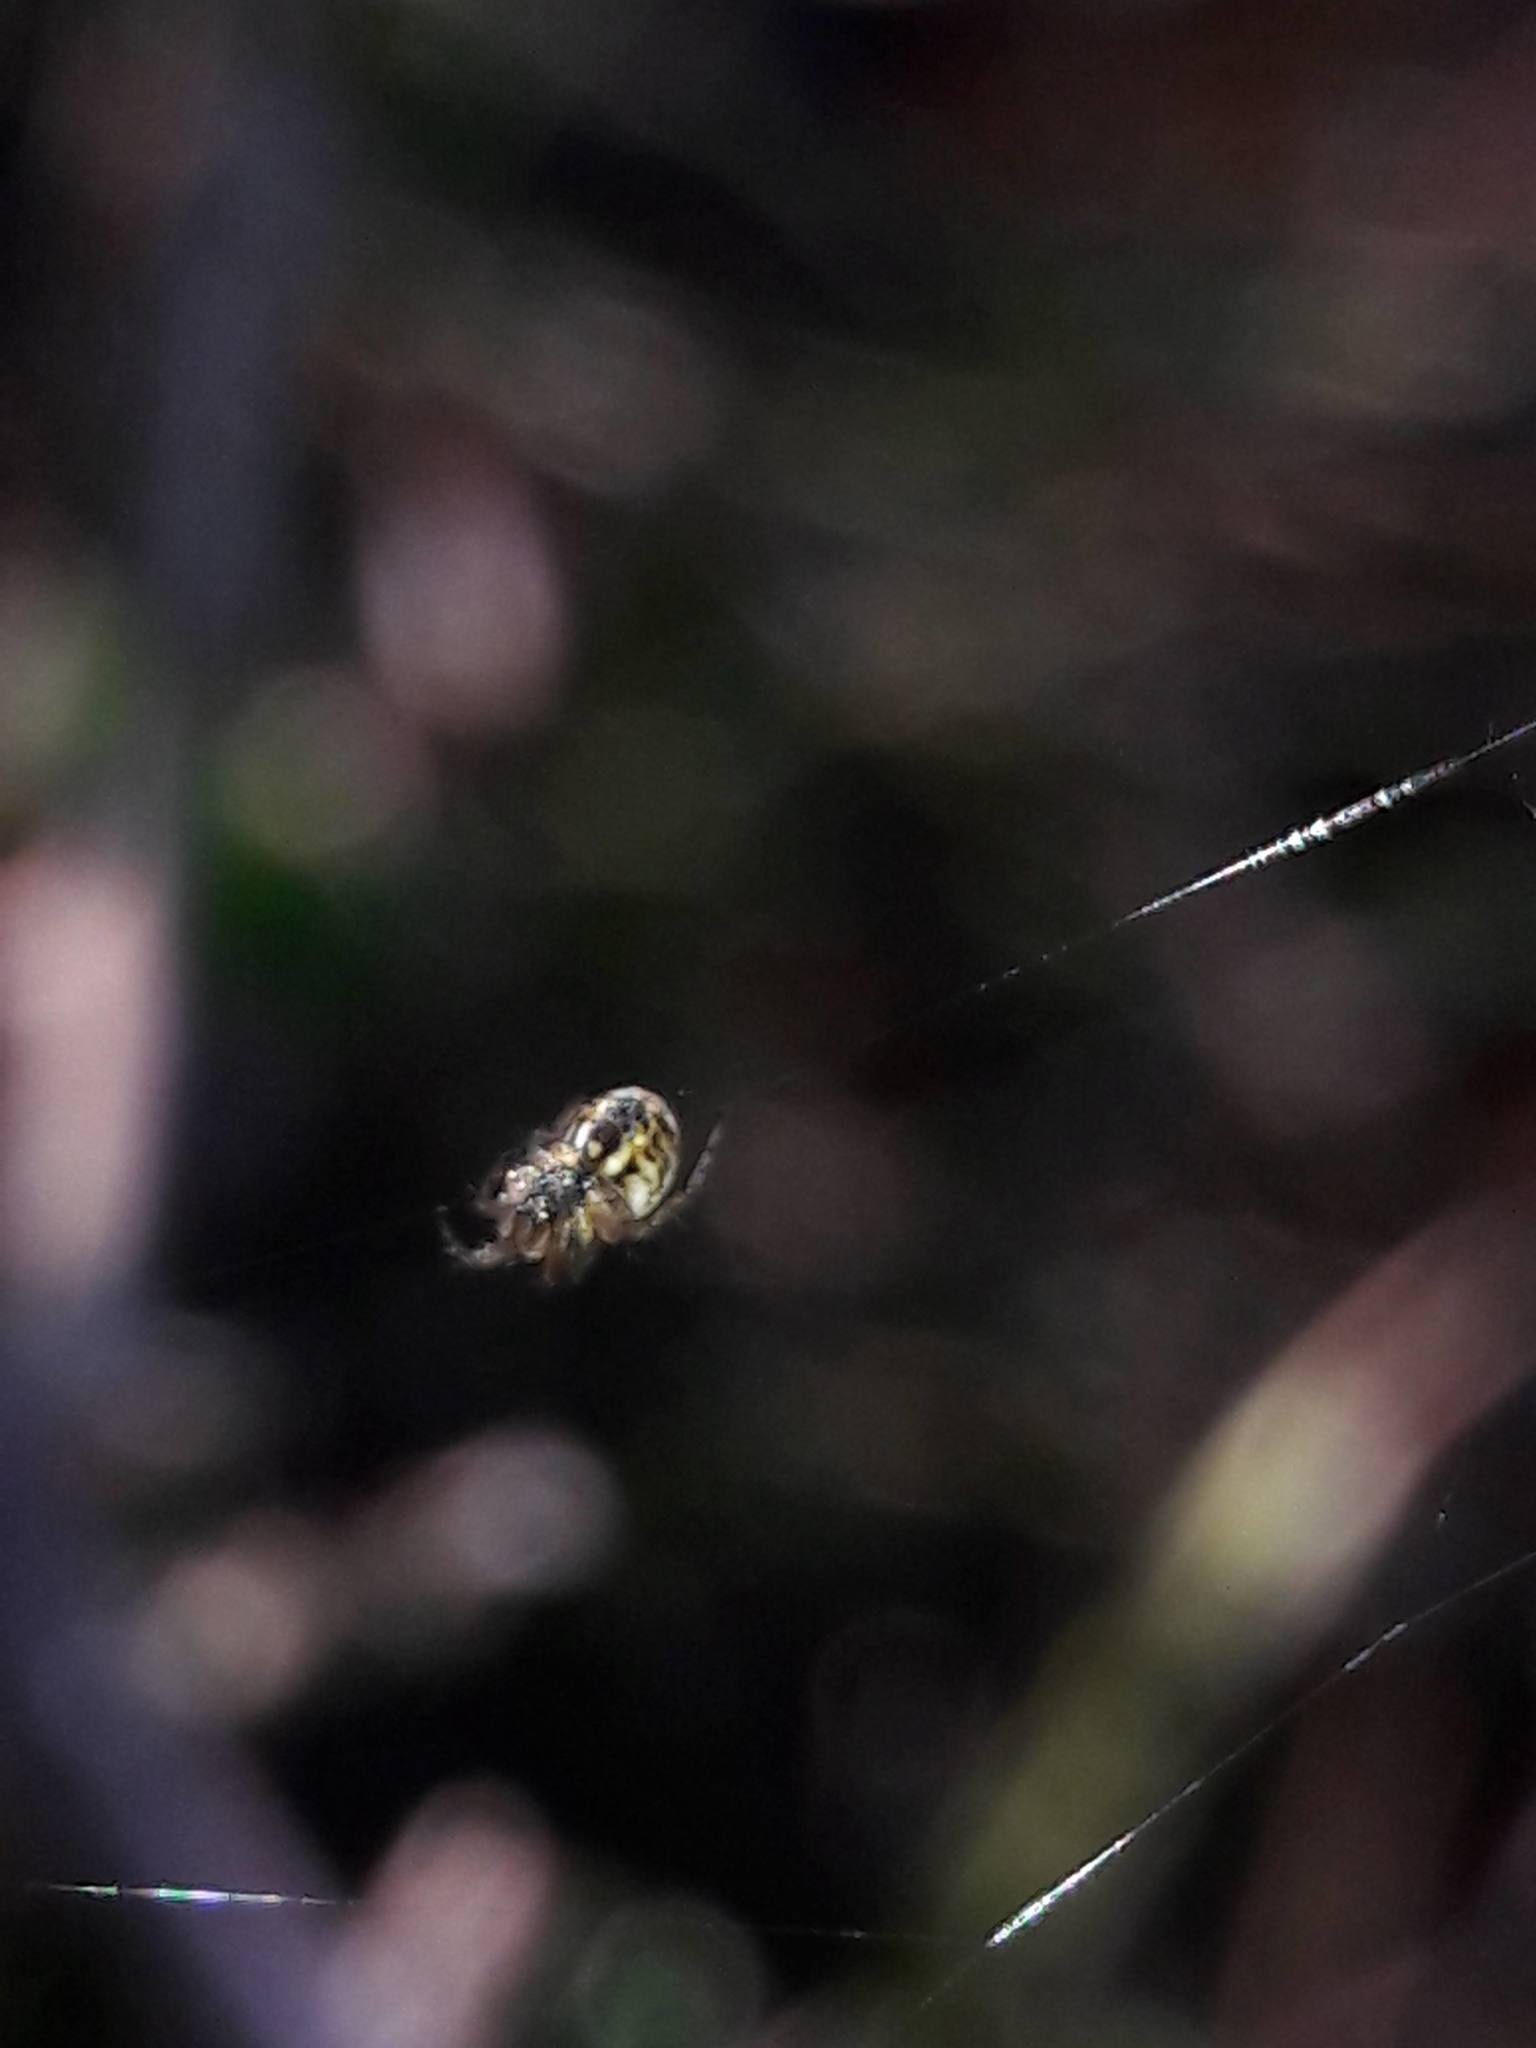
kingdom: Animalia
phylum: Arthropoda
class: Arachnida
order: Araneae
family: Araneidae
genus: Mangora
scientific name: Mangora acalypha
